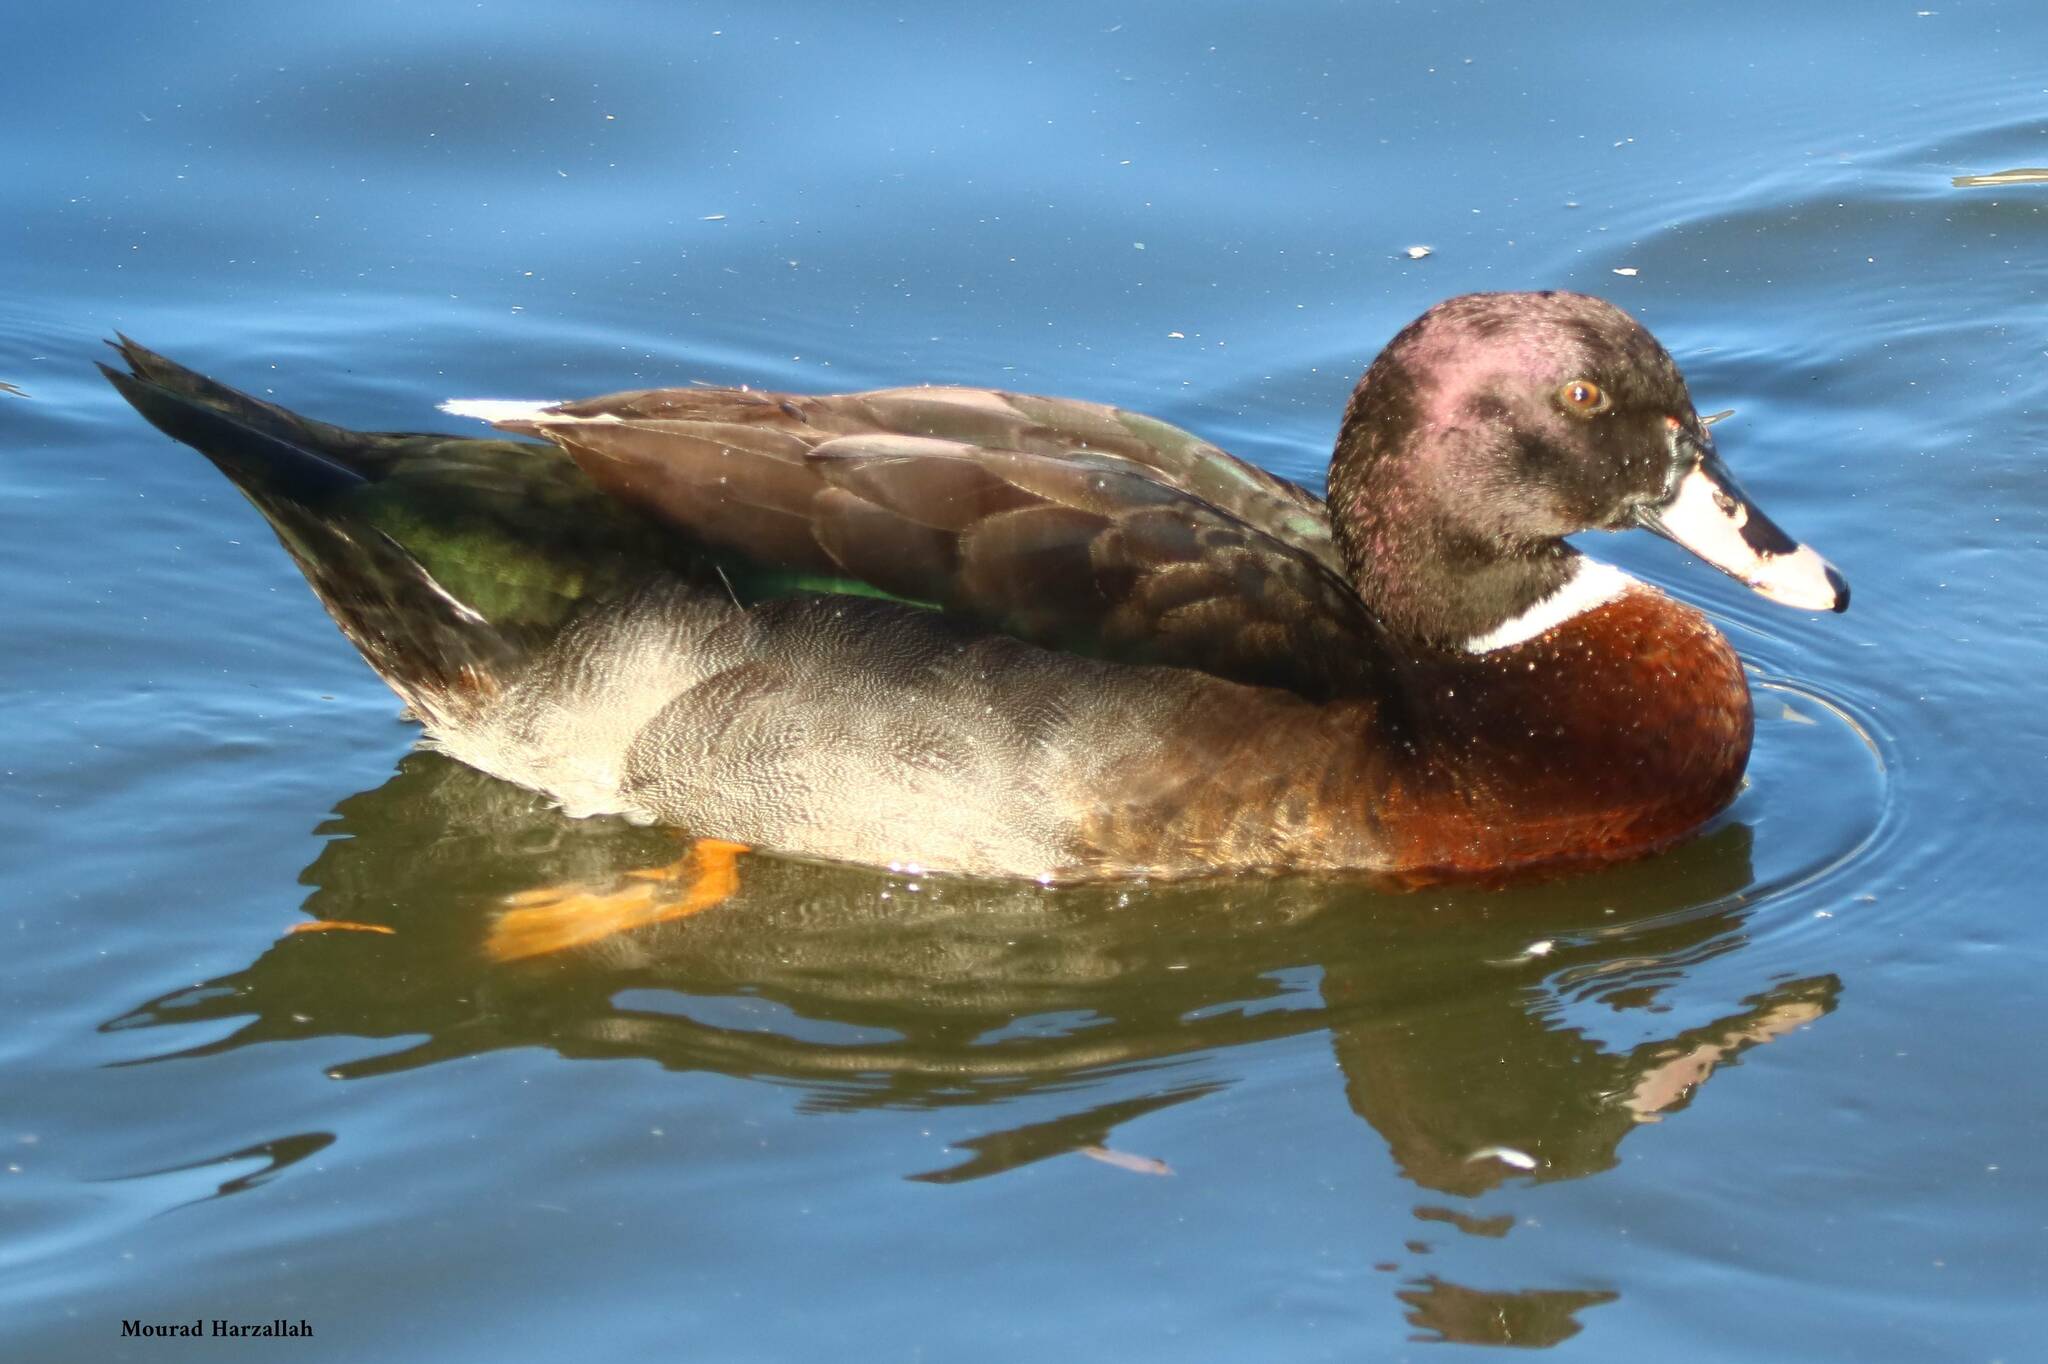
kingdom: Animalia
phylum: Chordata
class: Aves
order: Anseriformes
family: Anatidae
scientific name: Anatidae
